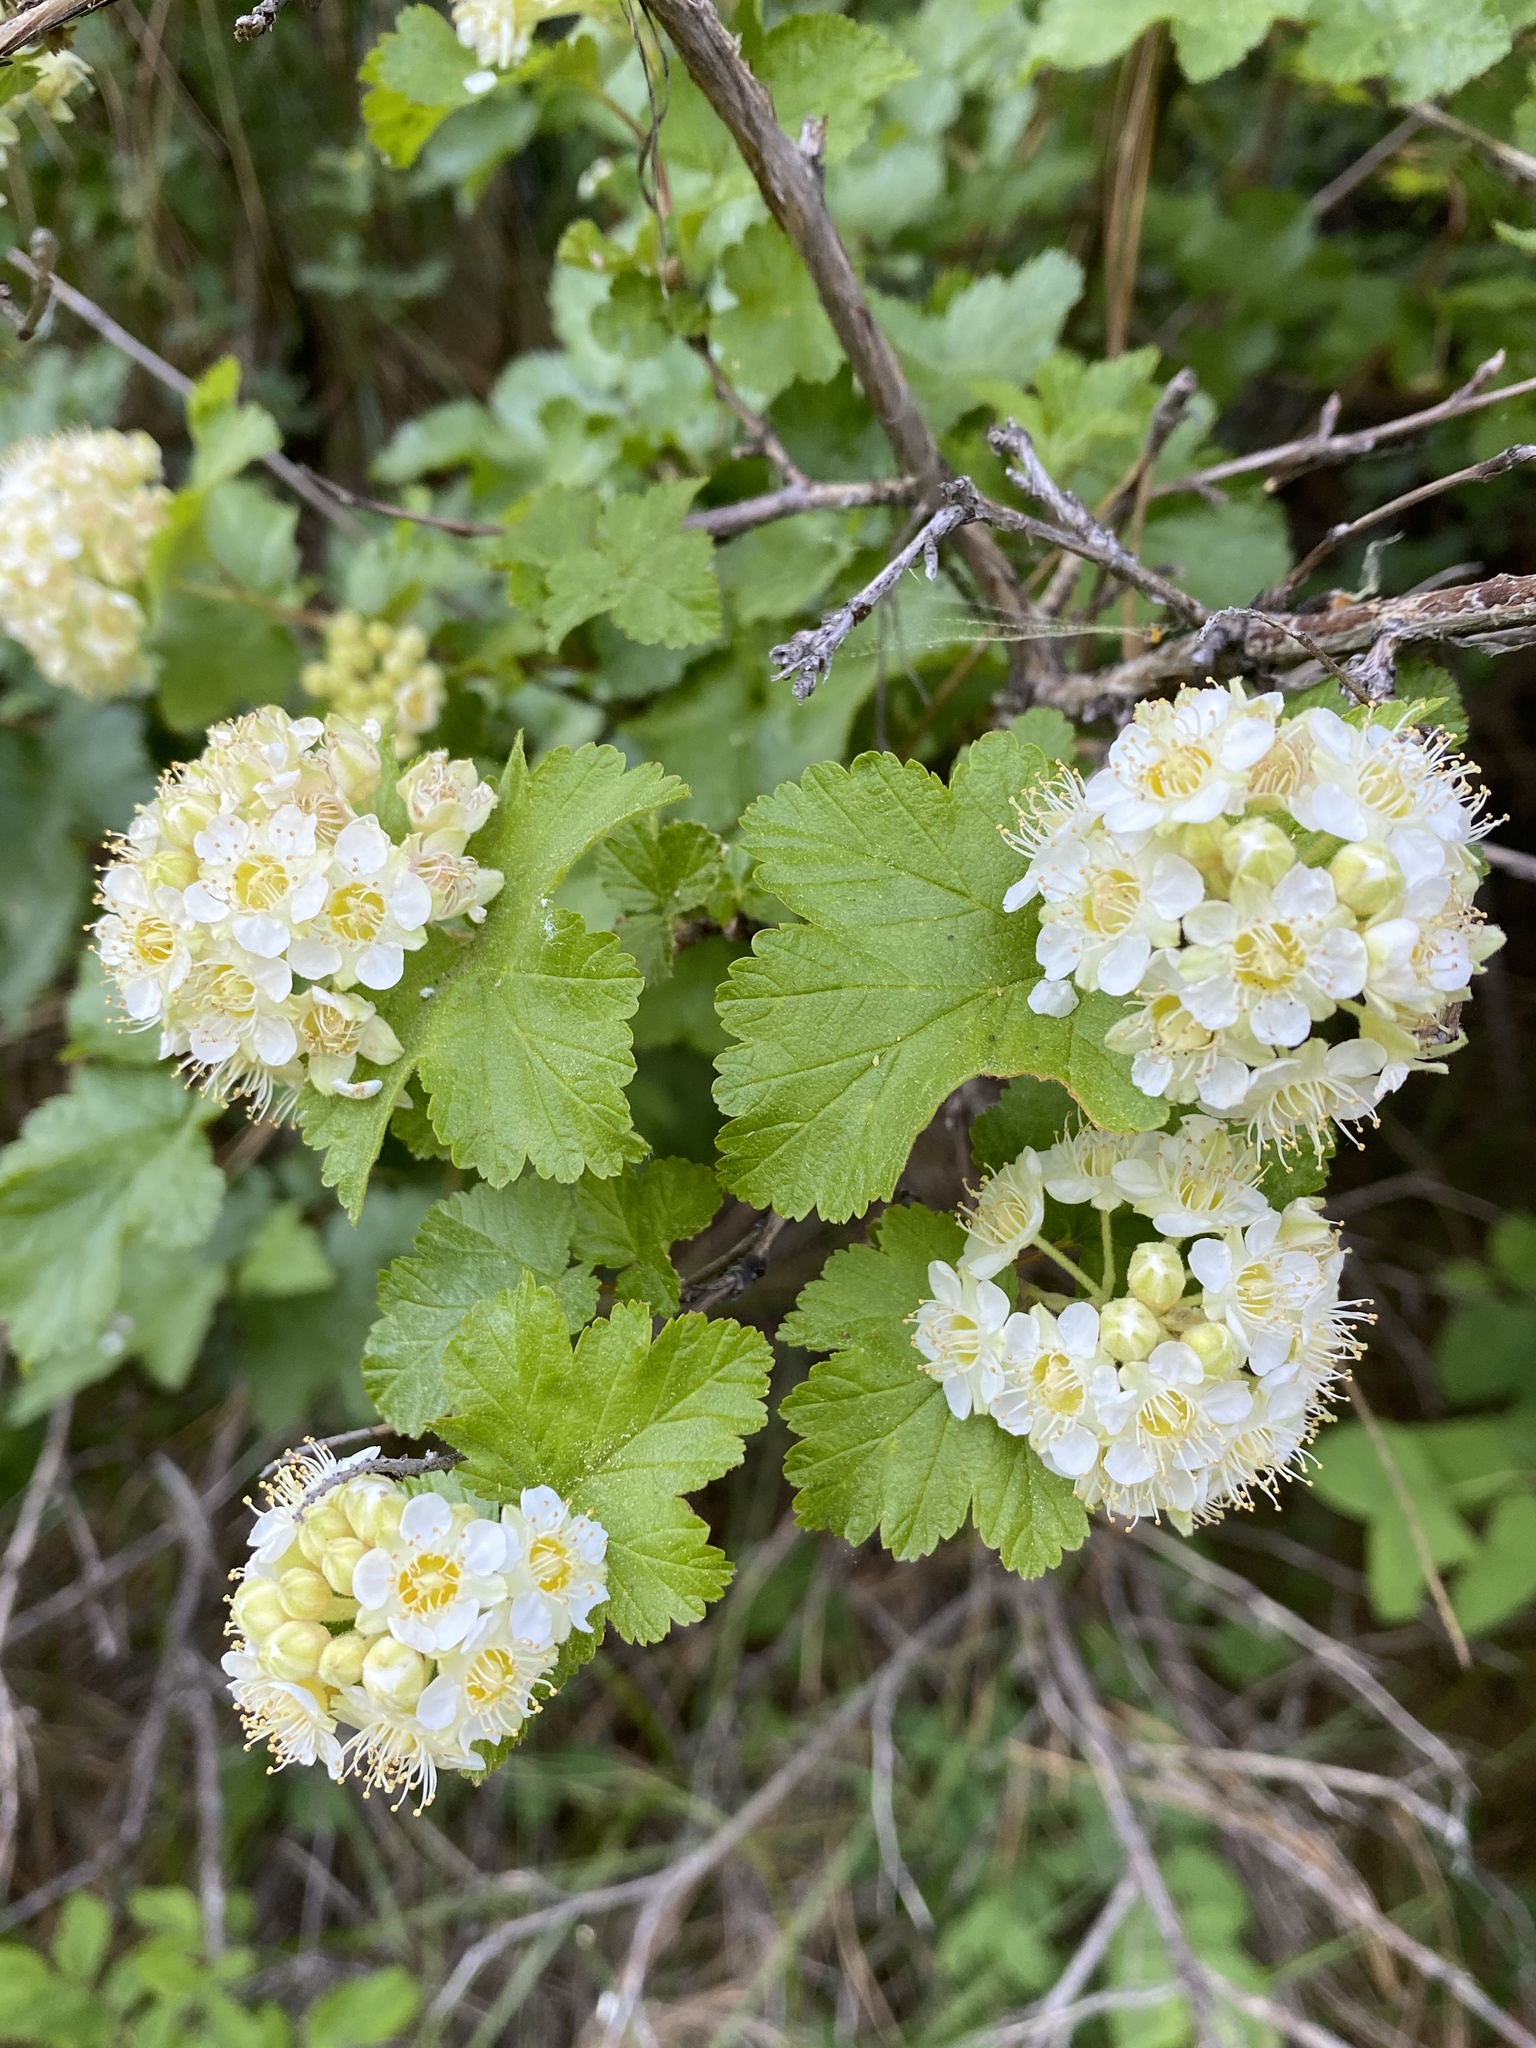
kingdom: Plantae
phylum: Tracheophyta
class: Magnoliopsida
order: Rosales
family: Rosaceae
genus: Physocarpus
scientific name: Physocarpus malvaceus
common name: Mallow ninebark
